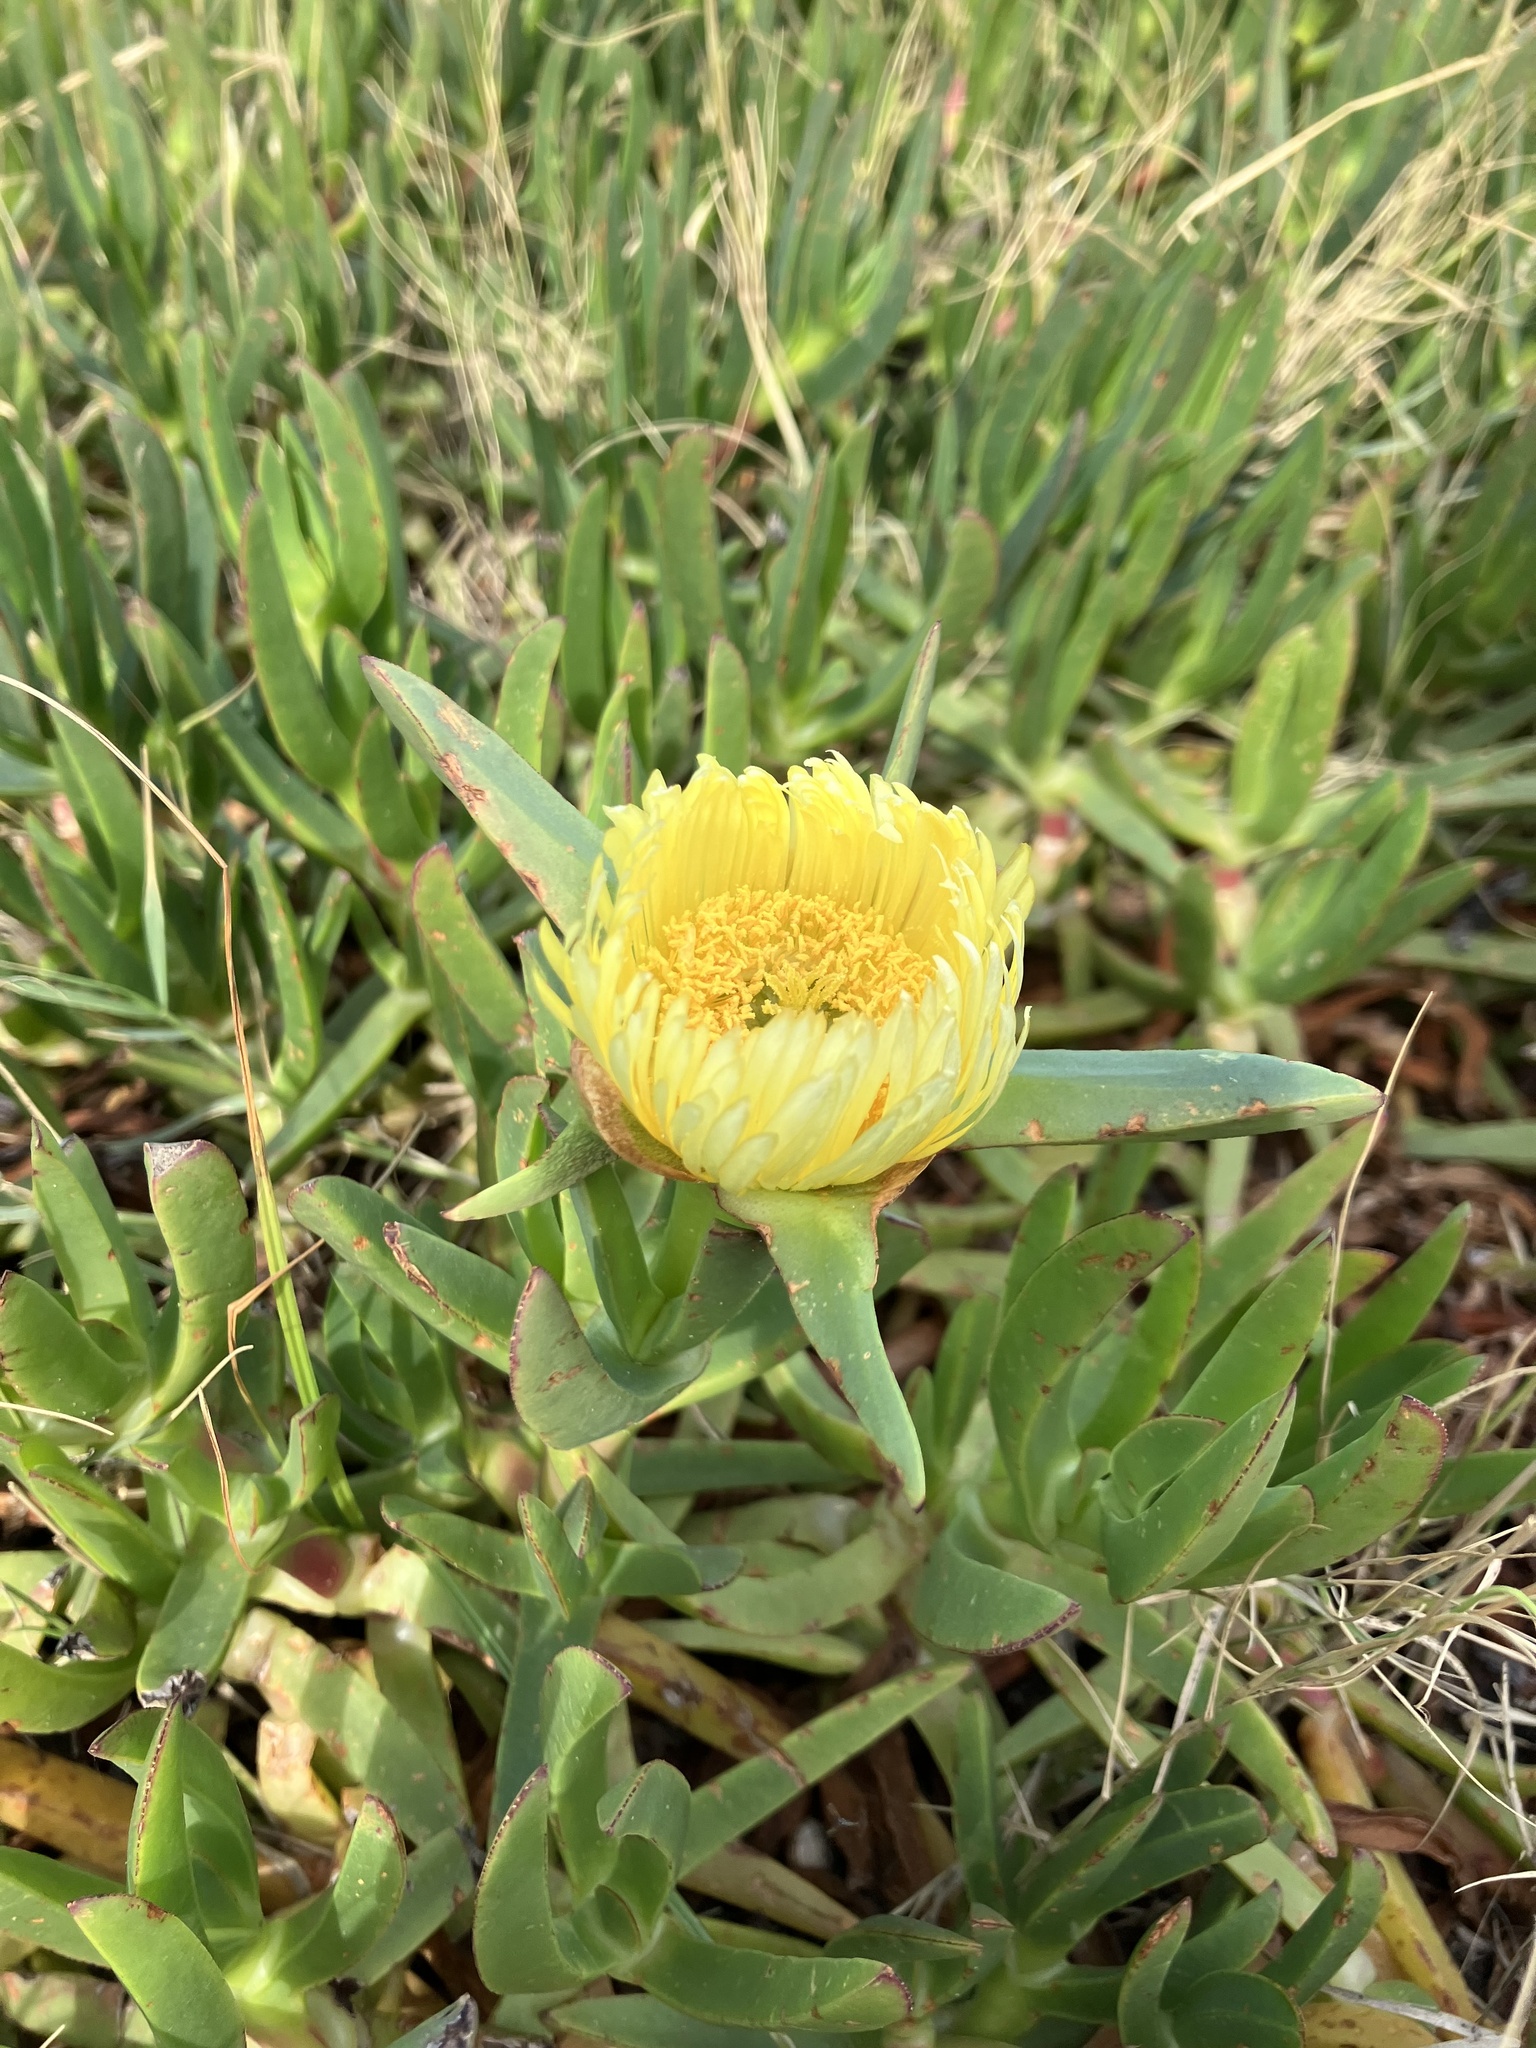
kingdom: Plantae
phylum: Tracheophyta
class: Magnoliopsida
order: Caryophyllales
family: Aizoaceae
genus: Carpobrotus
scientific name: Carpobrotus edulis
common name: Hottentot-fig
